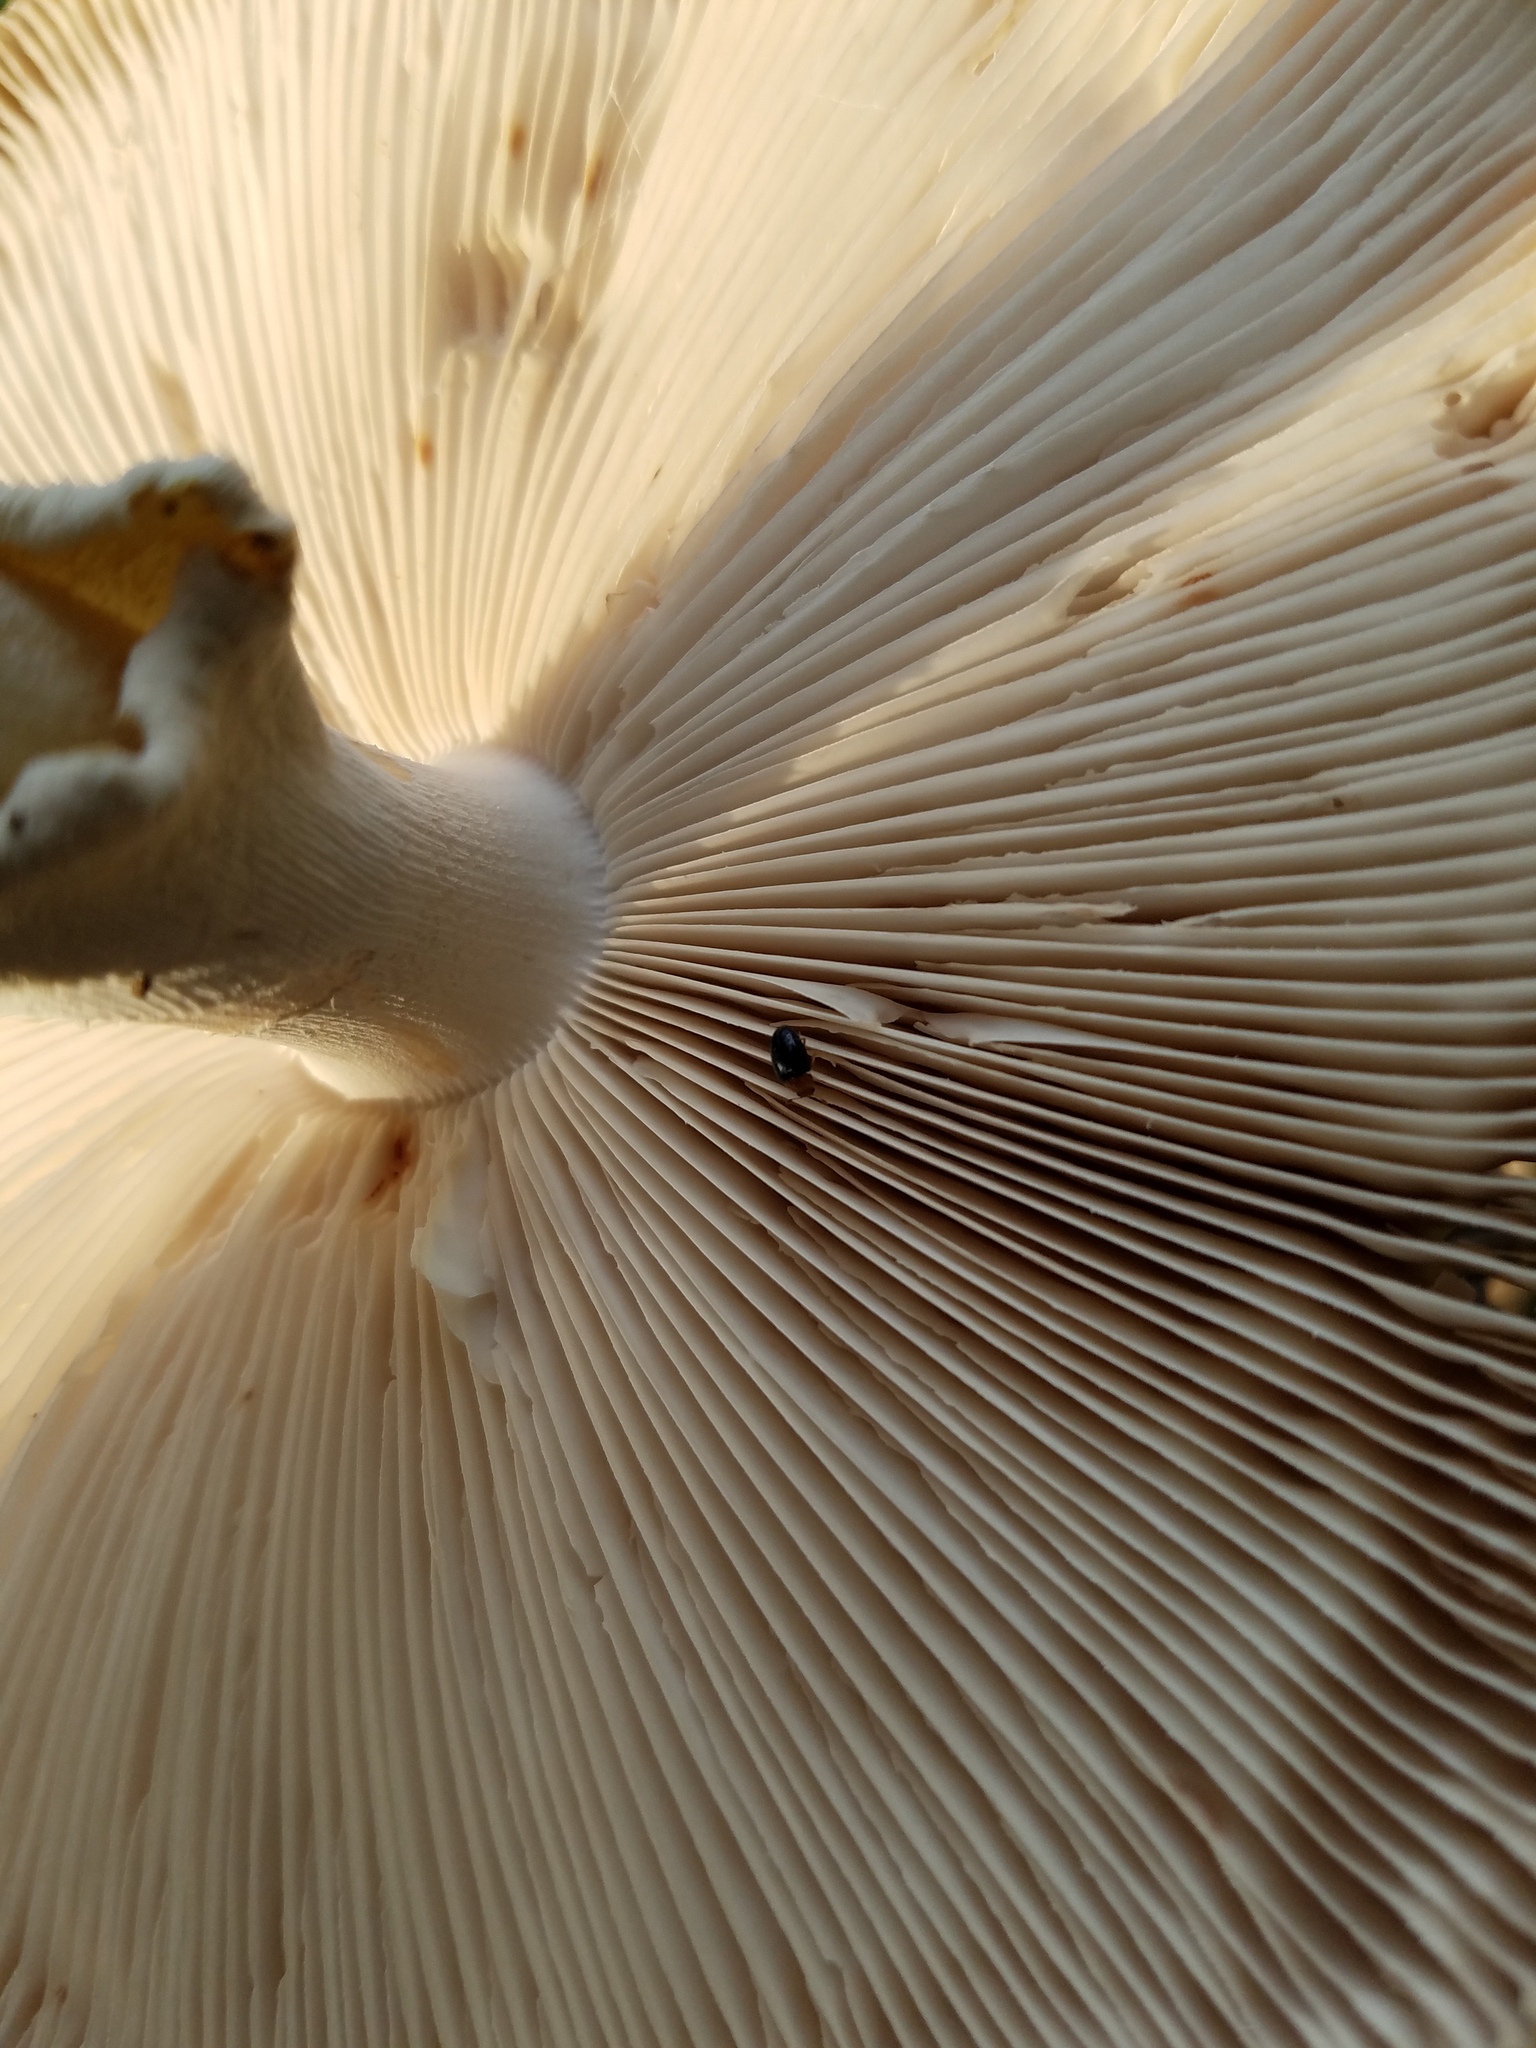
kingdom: Fungi
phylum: Basidiomycota
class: Agaricomycetes
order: Agaricales
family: Amanitaceae
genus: Amanita
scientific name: Amanita
